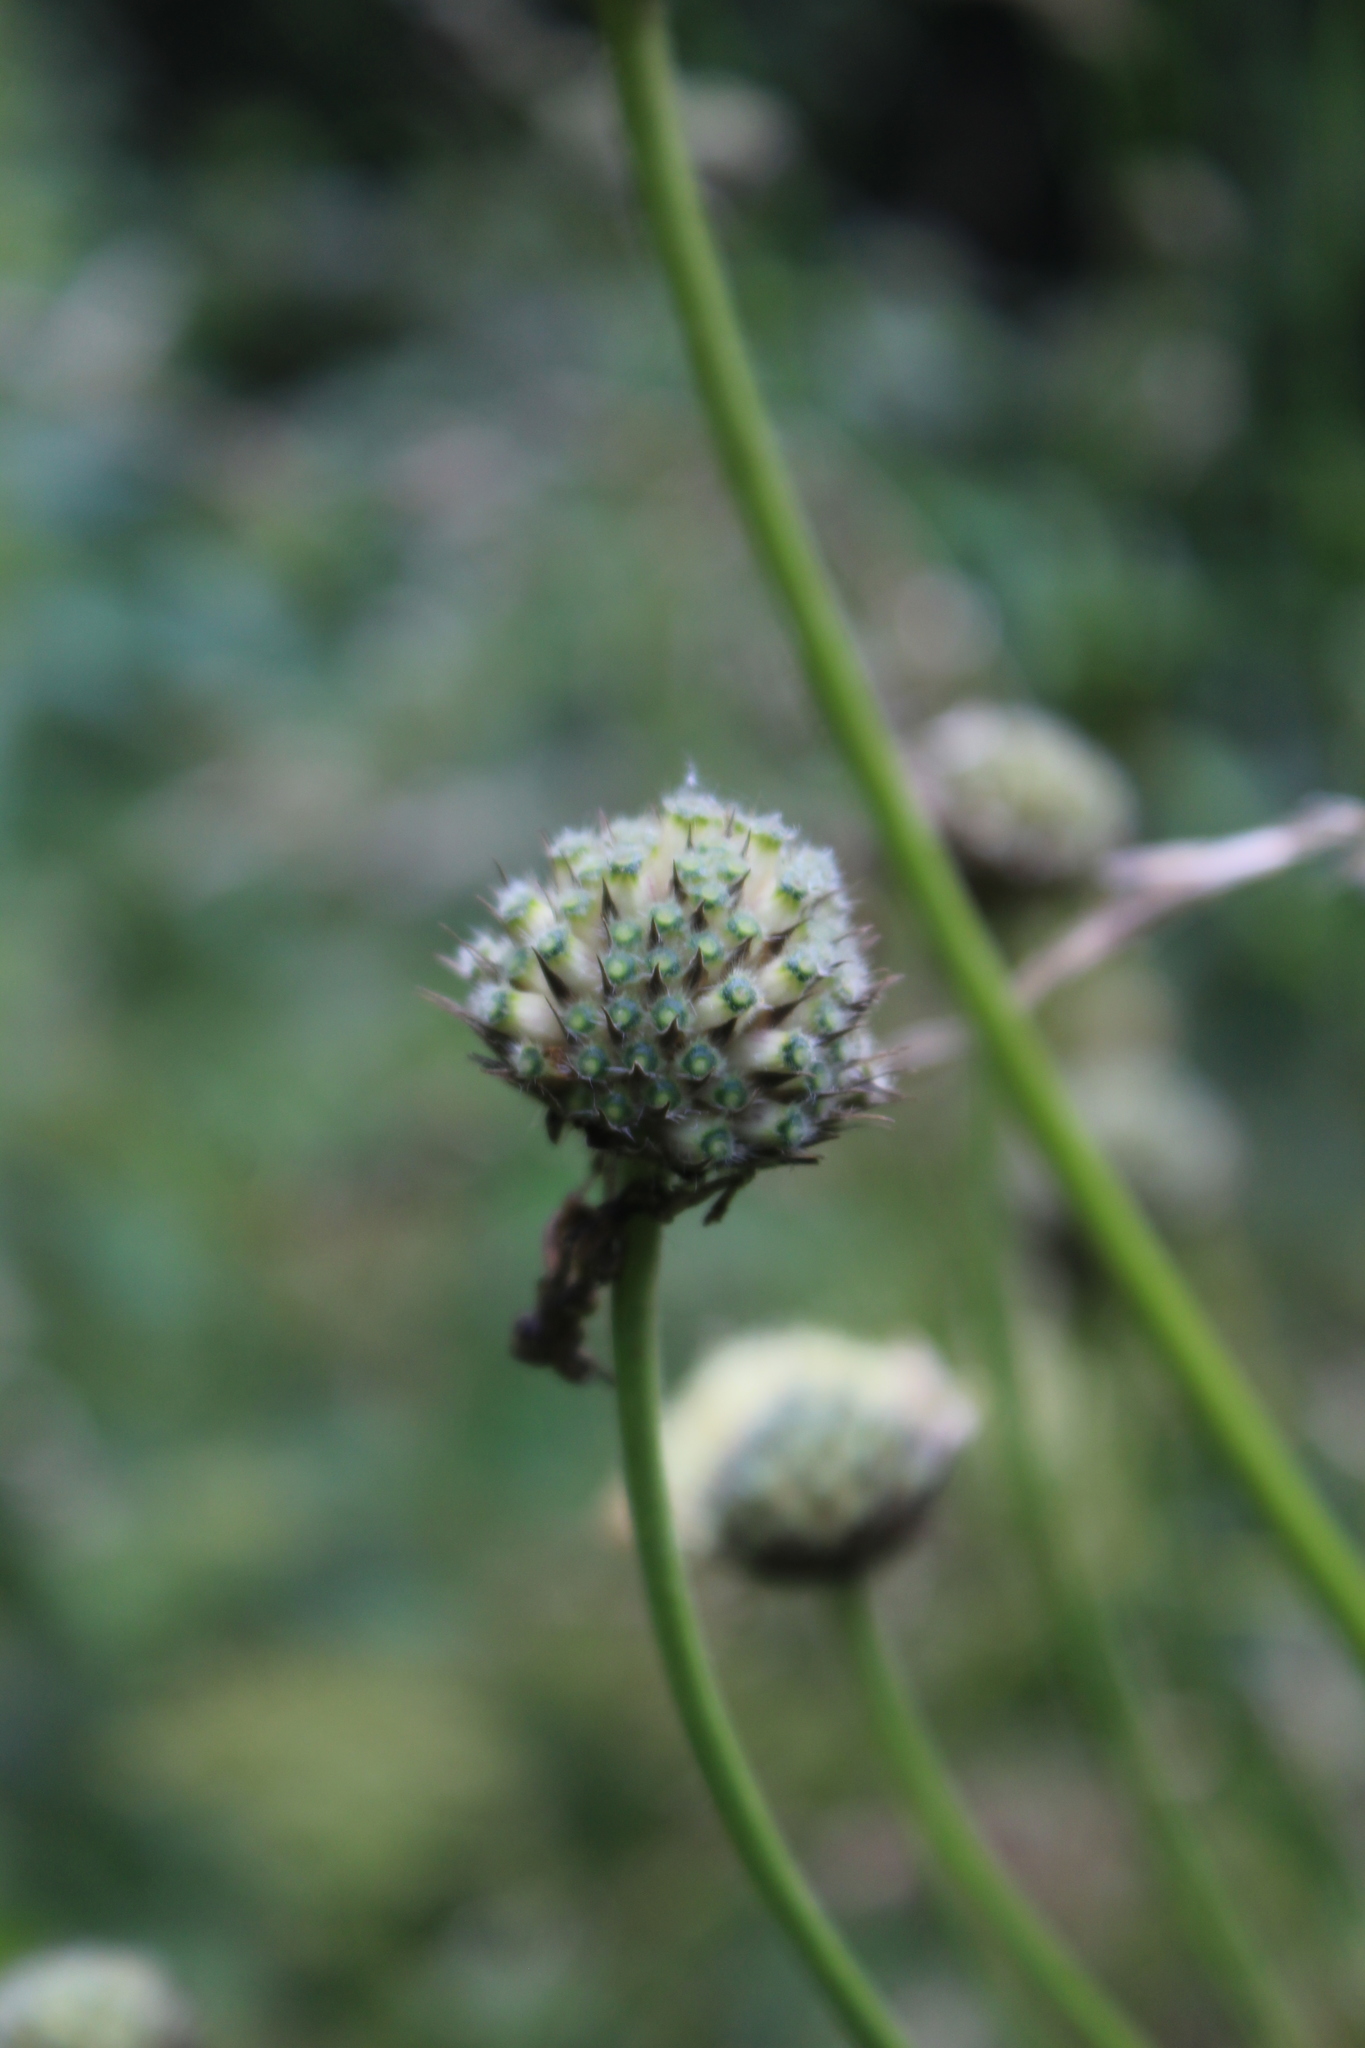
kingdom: Plantae
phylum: Tracheophyta
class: Magnoliopsida
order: Dipsacales
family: Caprifoliaceae
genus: Cephalaria
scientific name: Cephalaria gigantea
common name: Tatarian cephalaria
